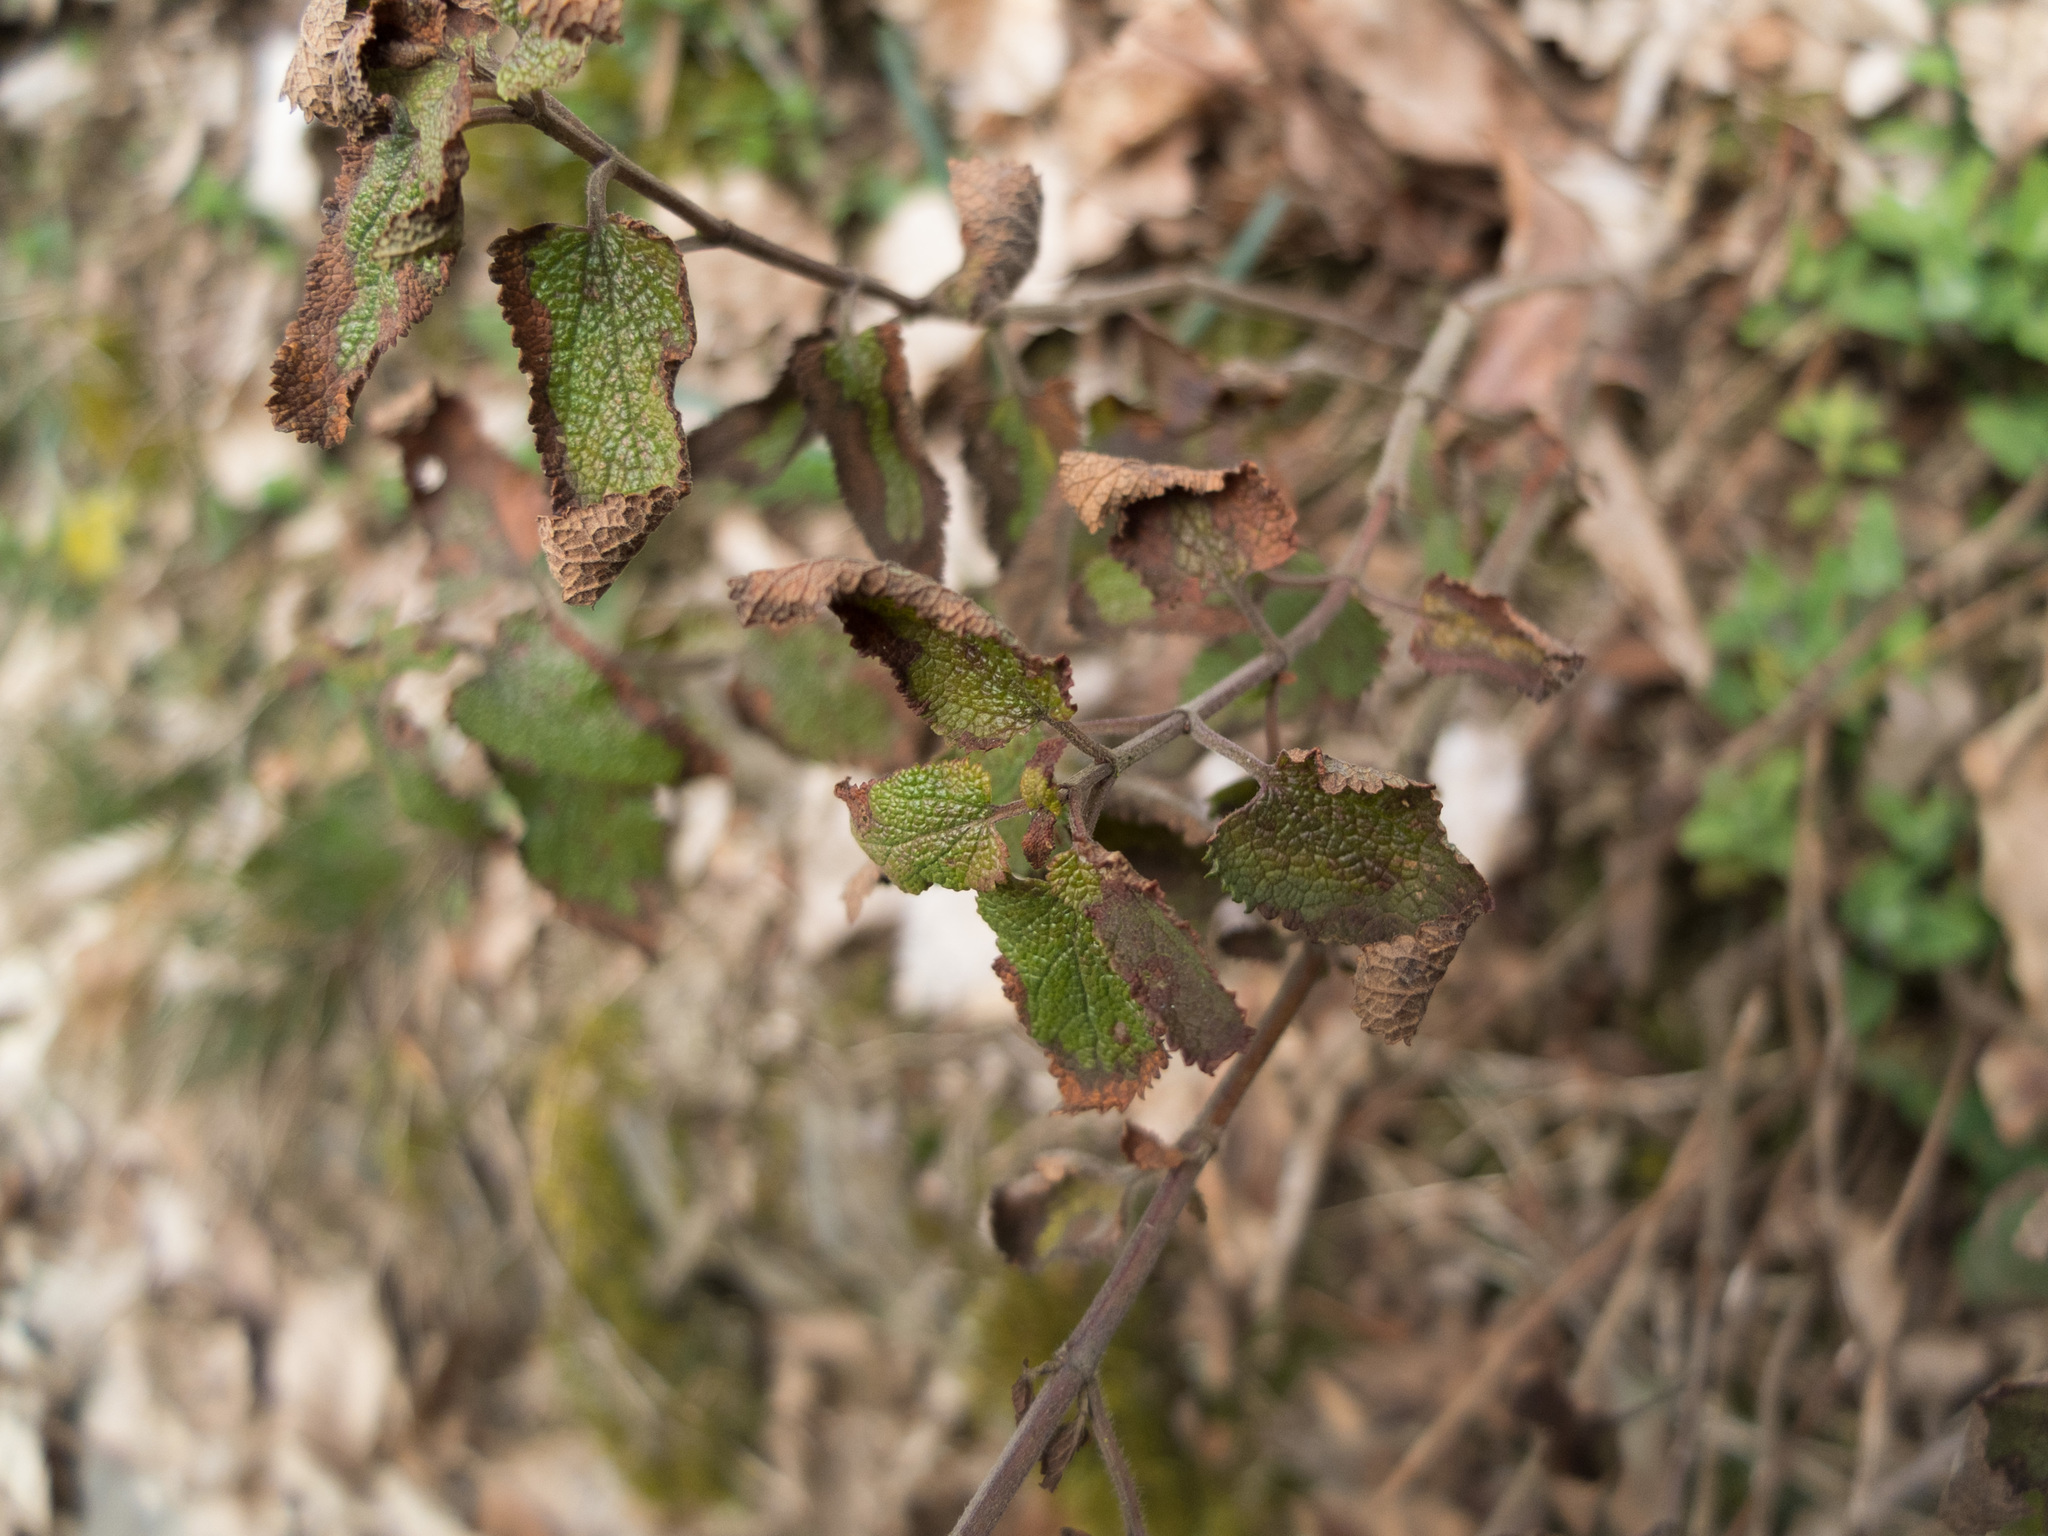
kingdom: Plantae
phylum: Tracheophyta
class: Magnoliopsida
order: Lamiales
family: Lamiaceae
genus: Teucrium
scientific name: Teucrium scorodonia
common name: Woodland germander
